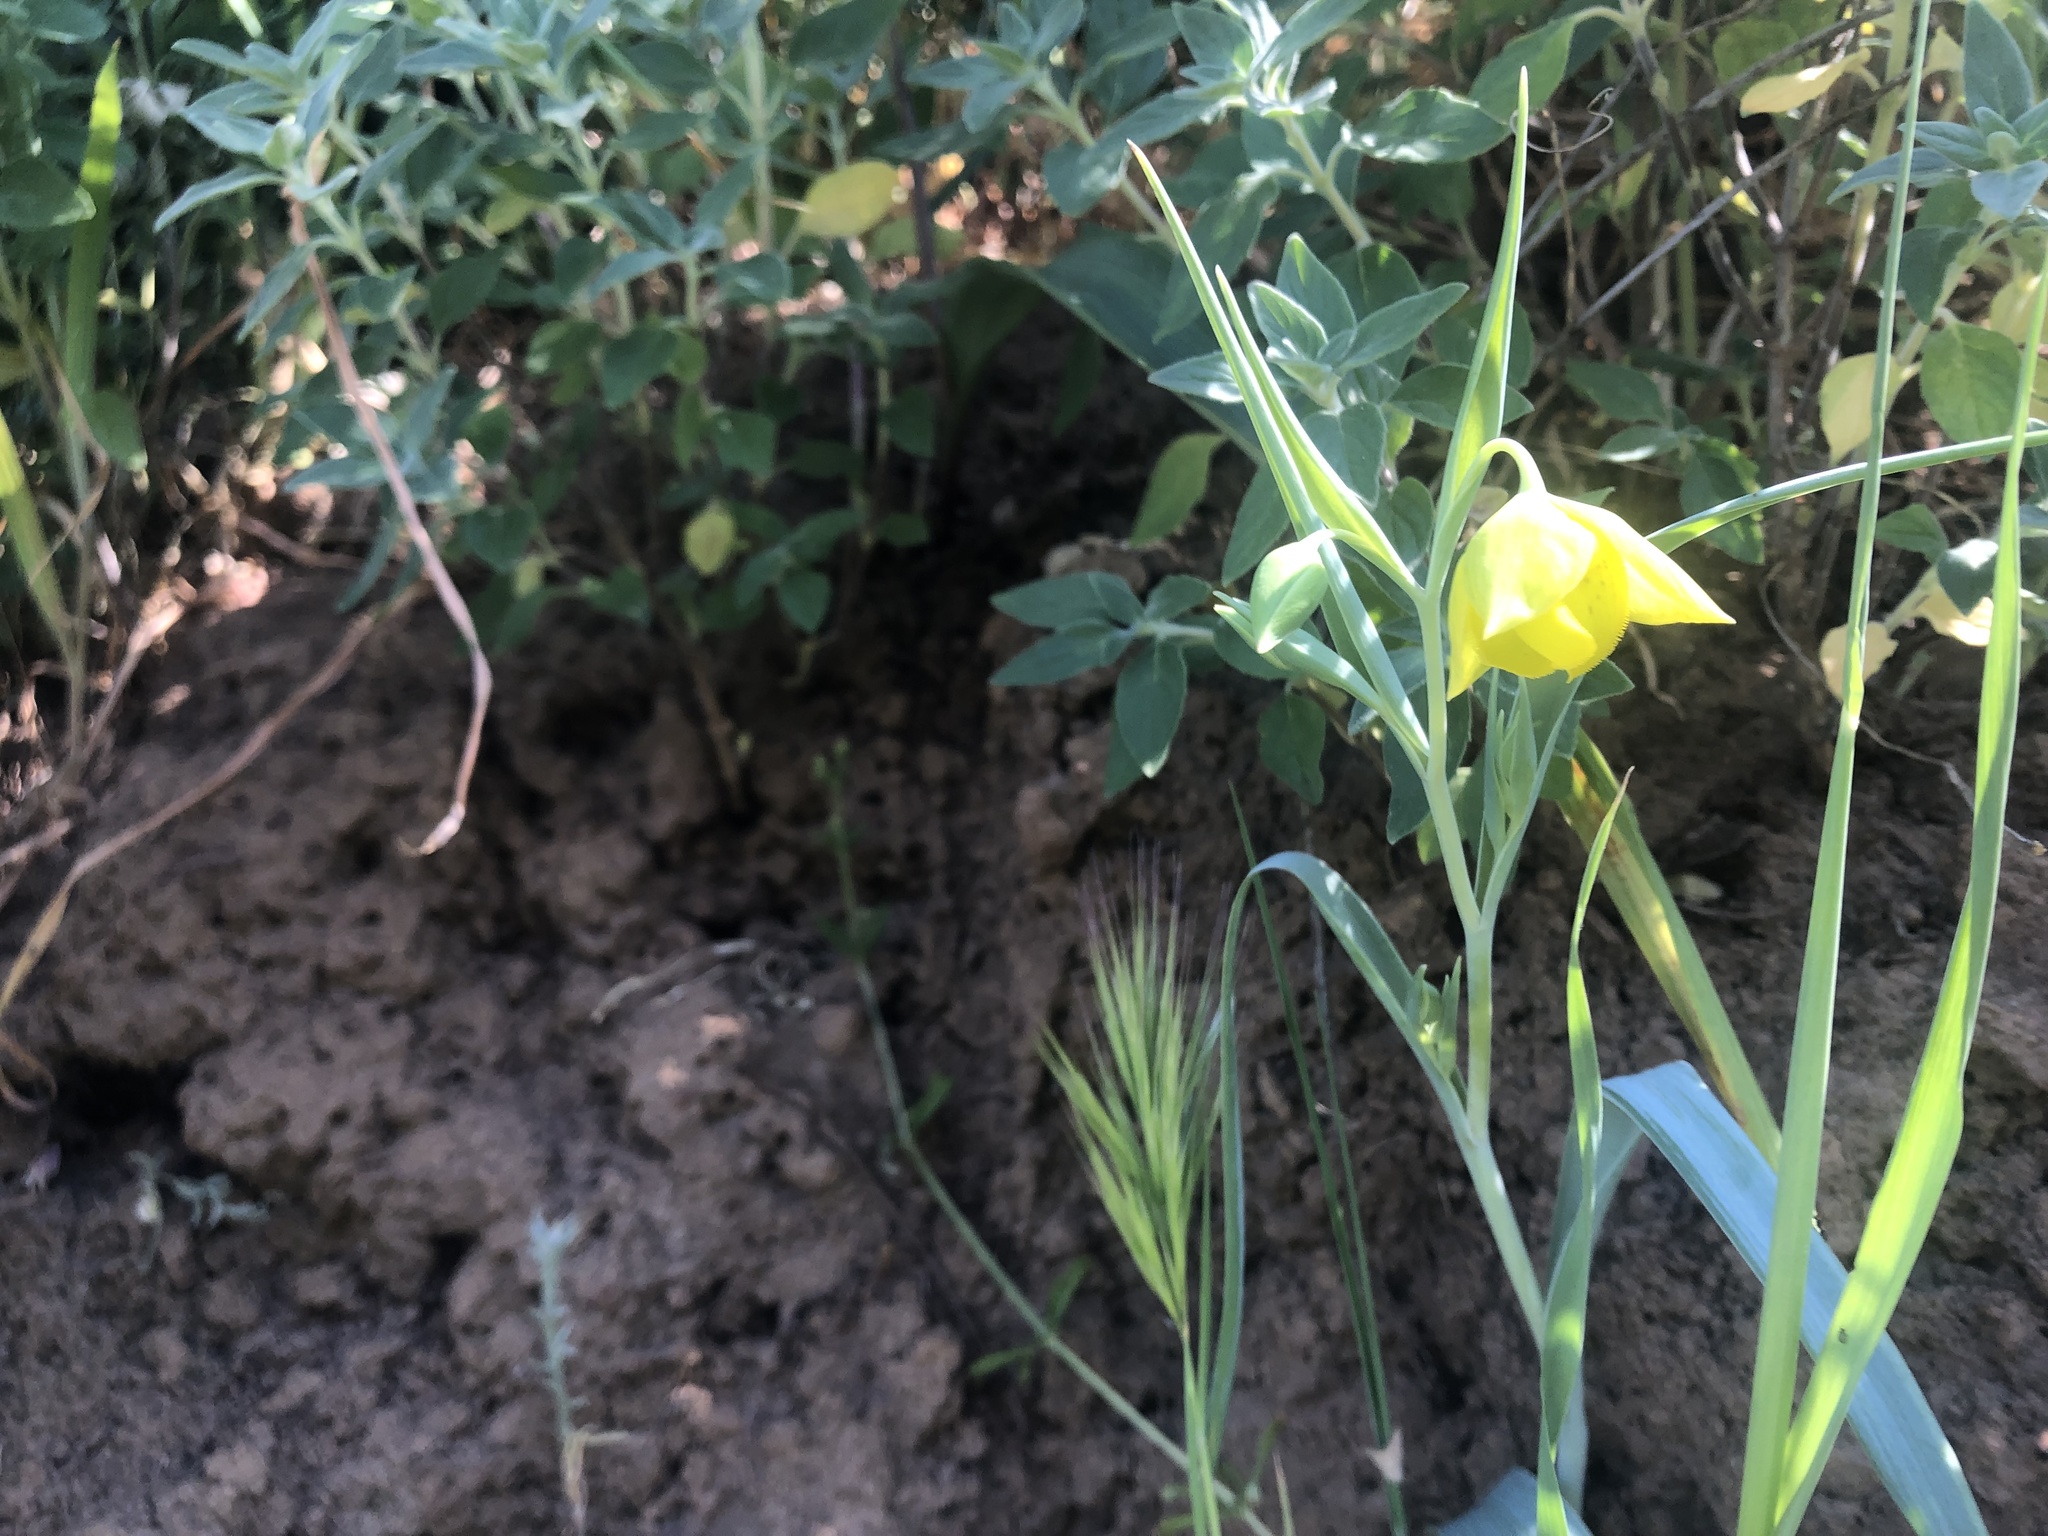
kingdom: Plantae
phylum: Tracheophyta
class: Liliopsida
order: Liliales
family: Liliaceae
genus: Calochortus
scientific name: Calochortus amabilis
